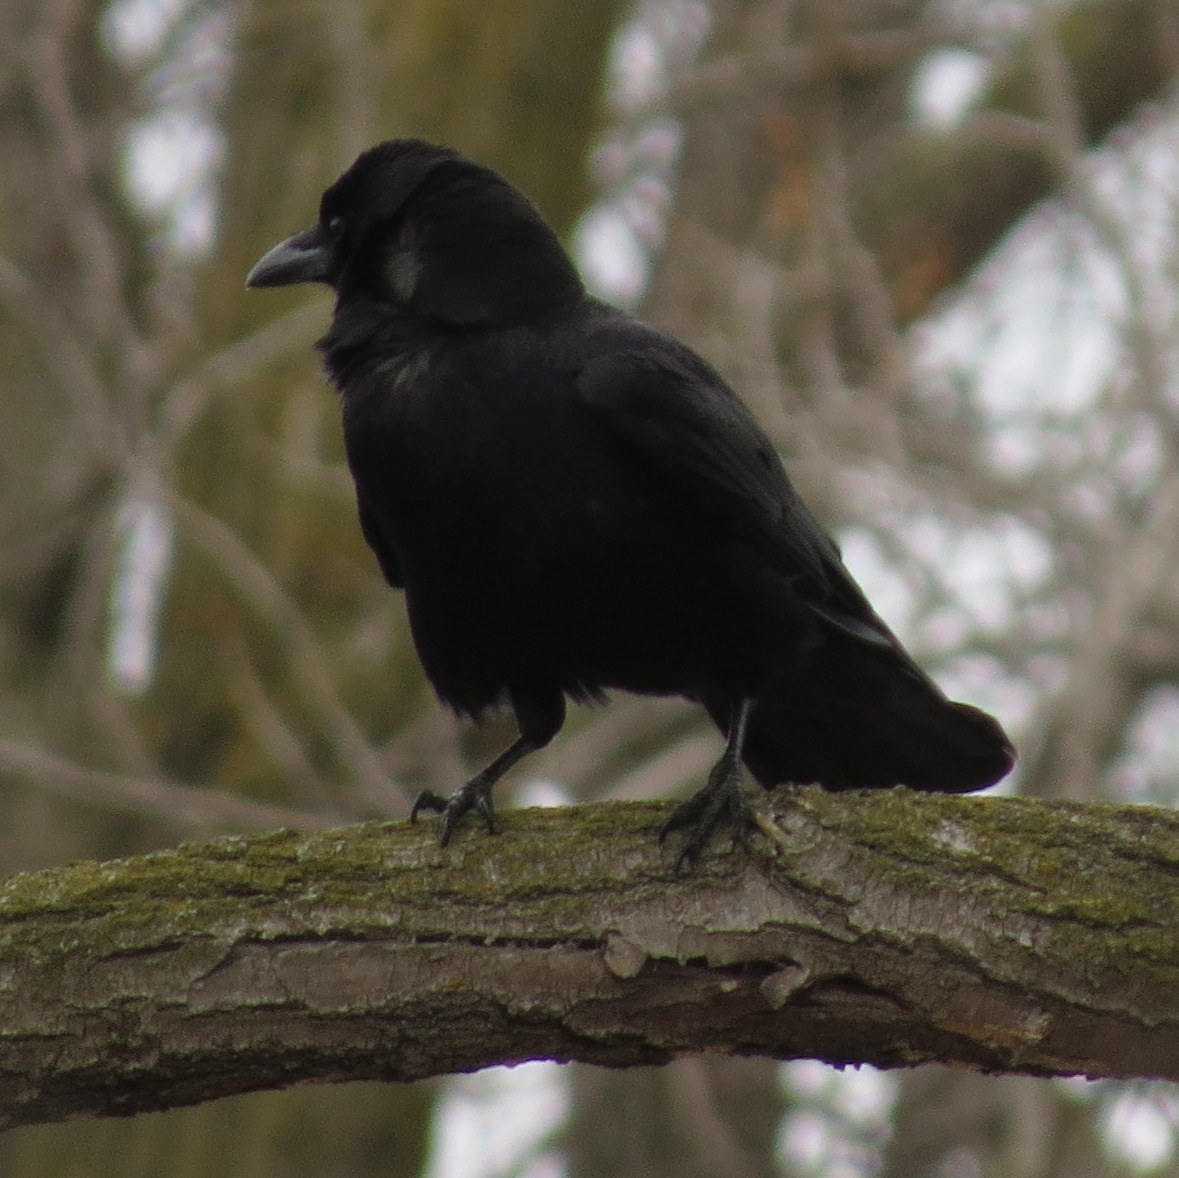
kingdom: Animalia
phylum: Chordata
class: Aves
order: Passeriformes
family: Corvidae
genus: Corvus
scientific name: Corvus brachyrhynchos
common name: American crow
